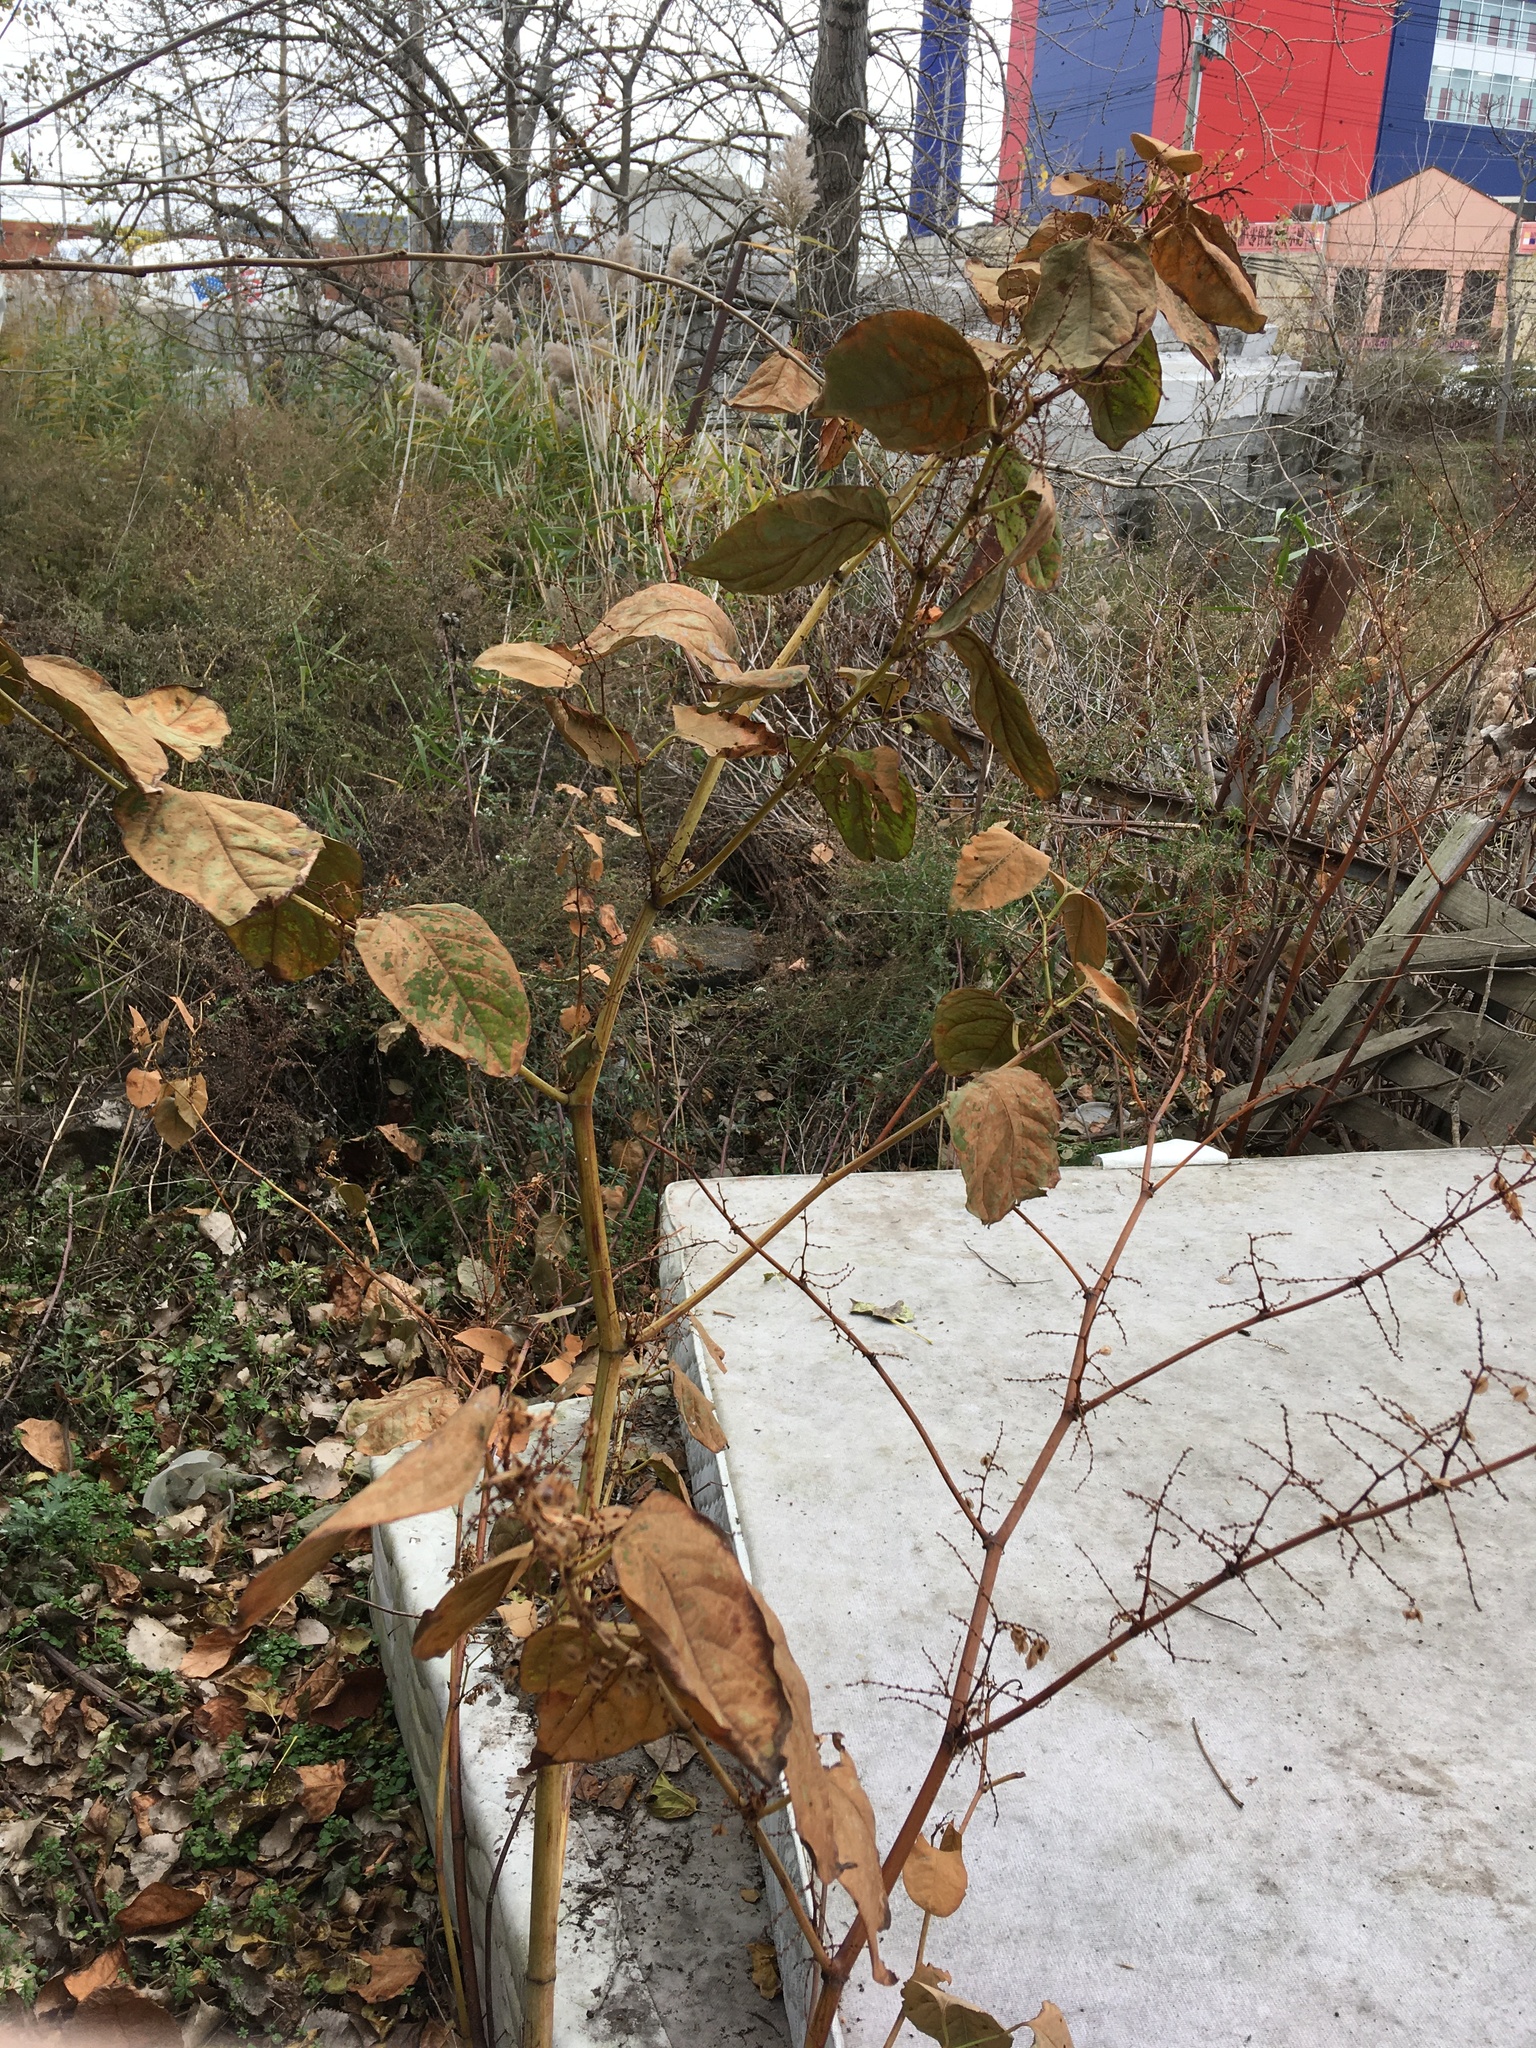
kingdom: Plantae
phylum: Tracheophyta
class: Magnoliopsida
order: Caryophyllales
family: Polygonaceae
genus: Reynoutria
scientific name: Reynoutria japonica
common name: Japanese knotweed
